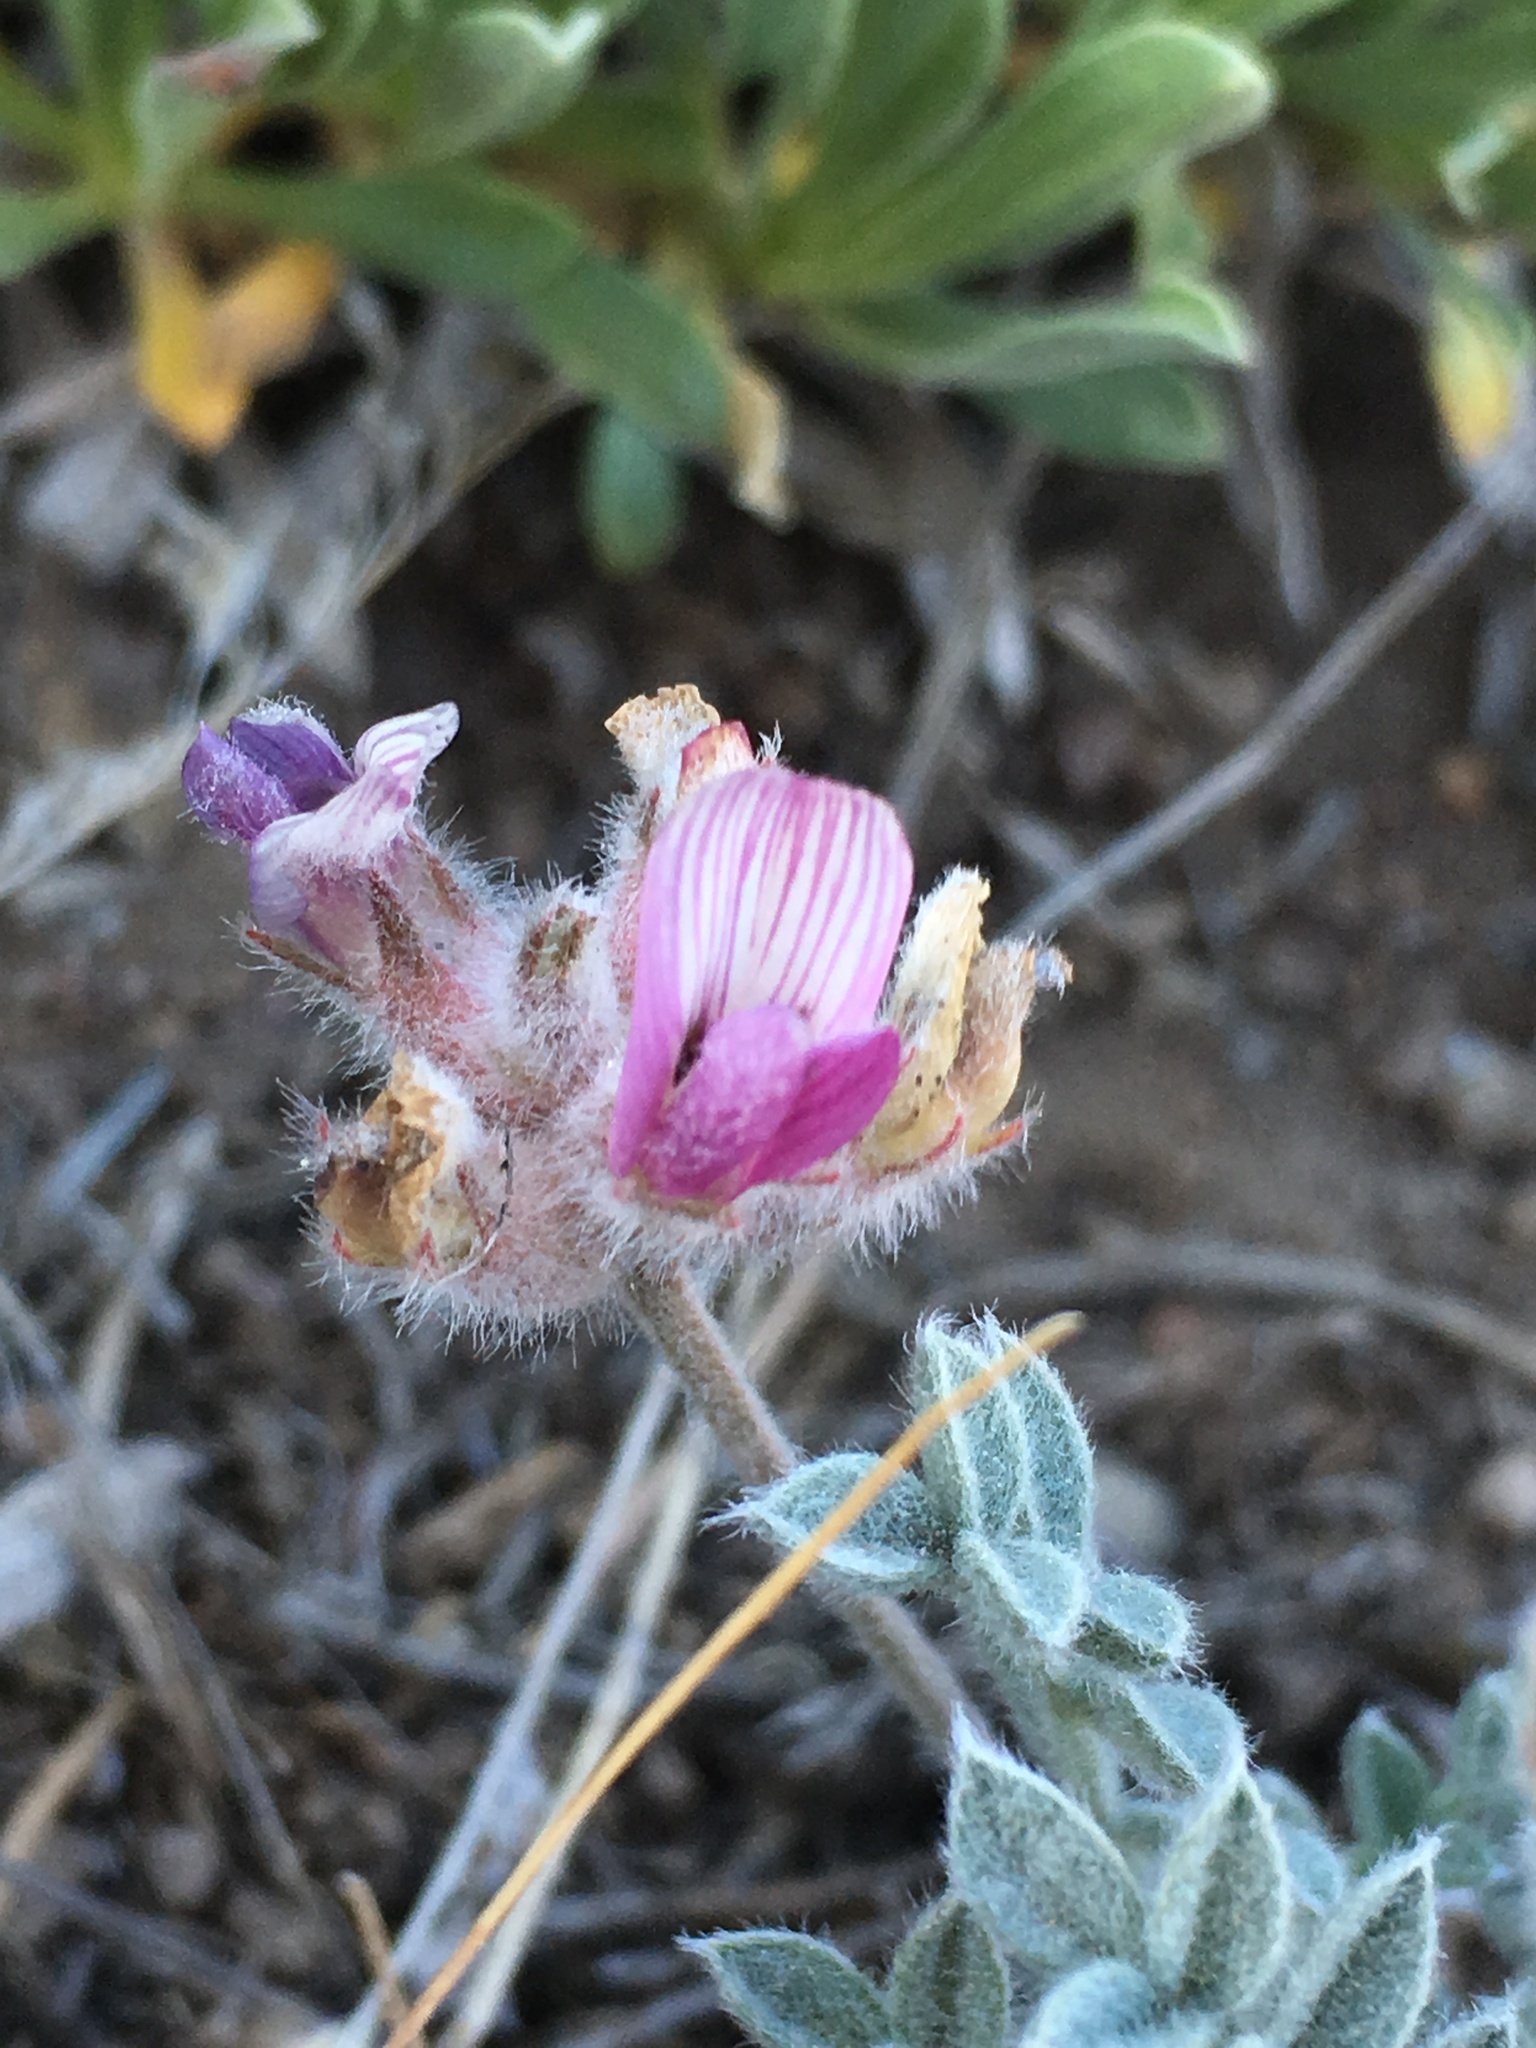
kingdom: Plantae
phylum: Tracheophyta
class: Magnoliopsida
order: Fabales
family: Fabaceae
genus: Astragalus
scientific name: Astragalus austiniae
